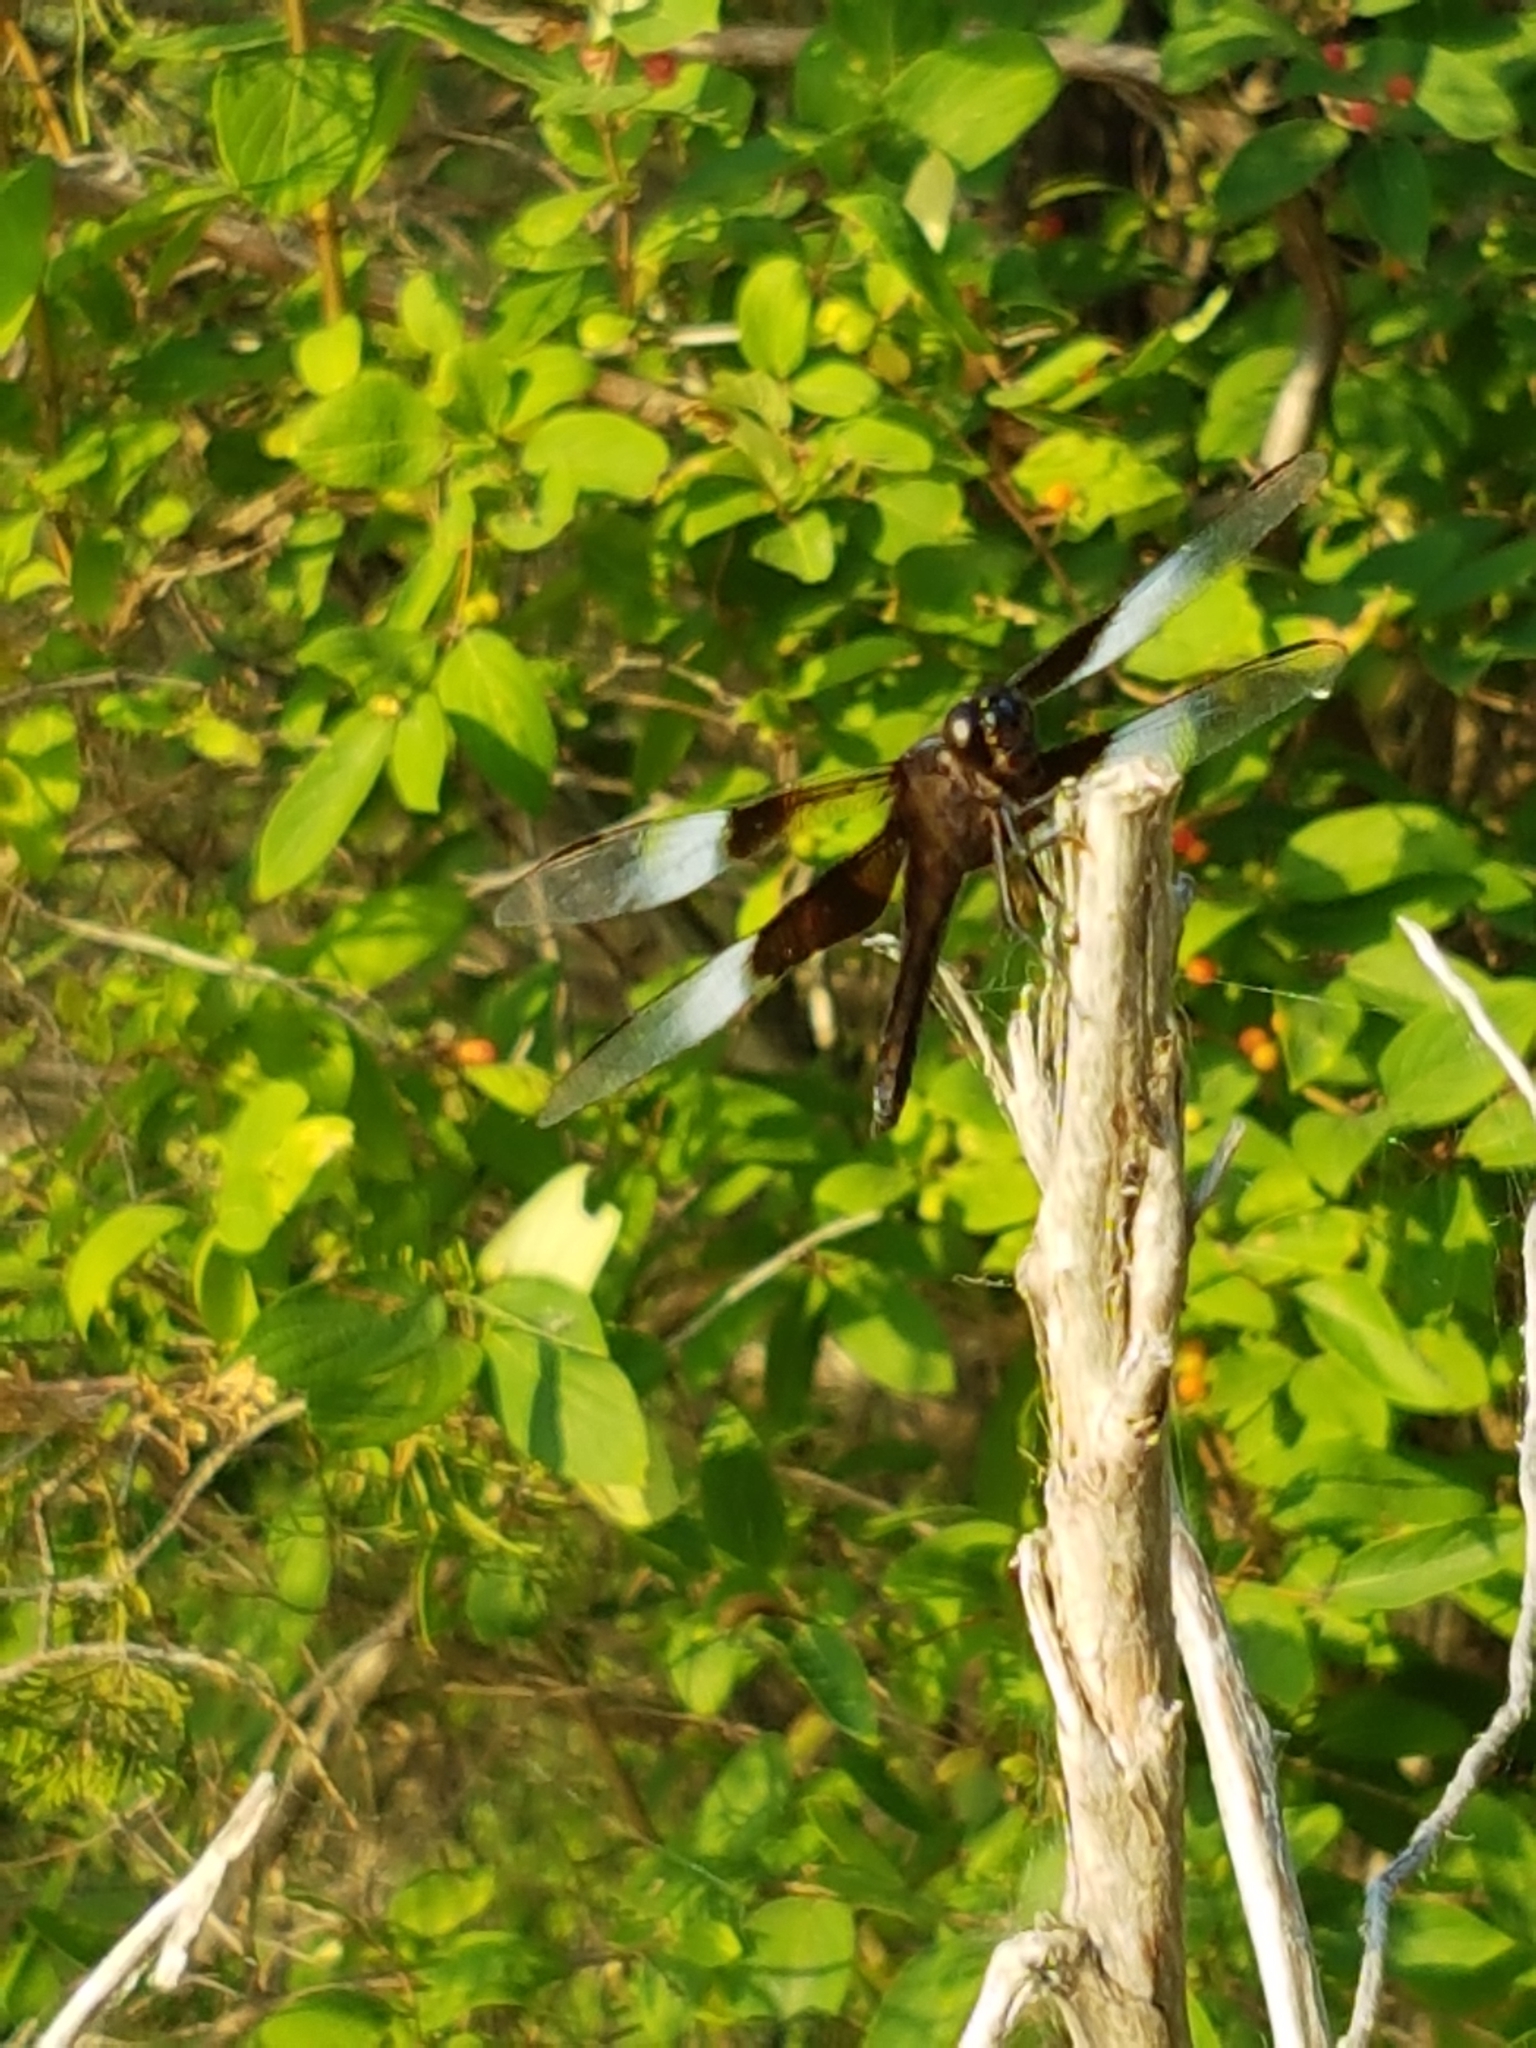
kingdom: Animalia
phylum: Arthropoda
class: Insecta
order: Odonata
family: Libellulidae
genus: Libellula
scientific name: Libellula luctuosa
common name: Widow skimmer
